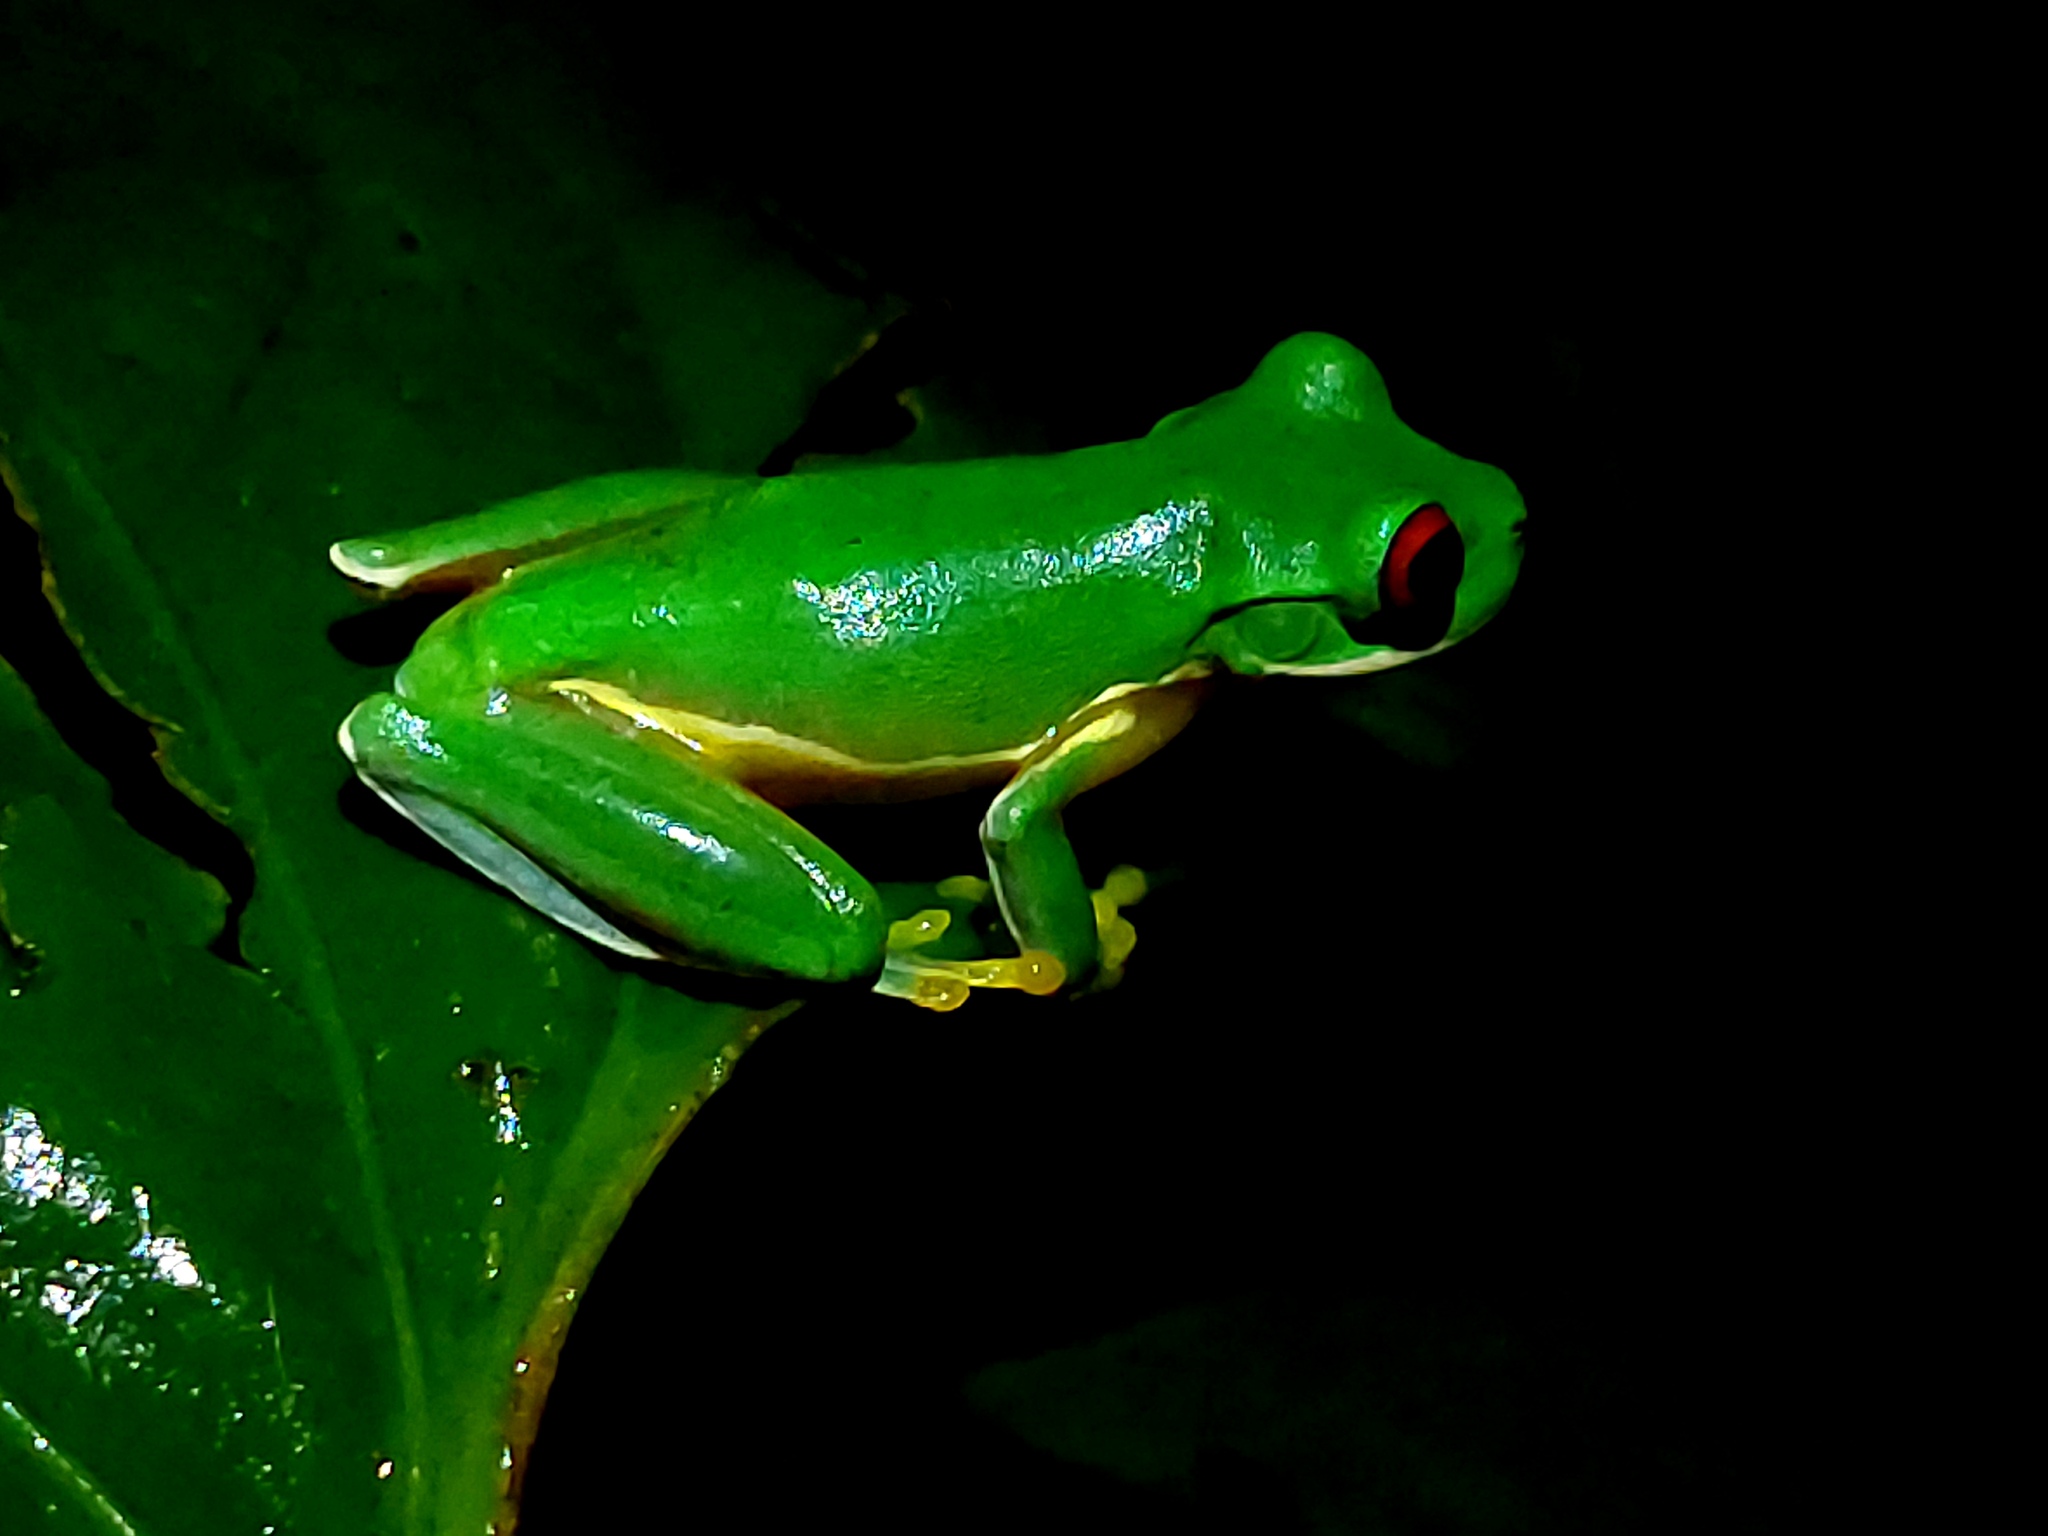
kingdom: Animalia
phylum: Chordata
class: Amphibia
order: Anura
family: Hylidae
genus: Duellmanohyla
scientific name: Duellmanohyla uranochroa
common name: Costa rica brook frog
